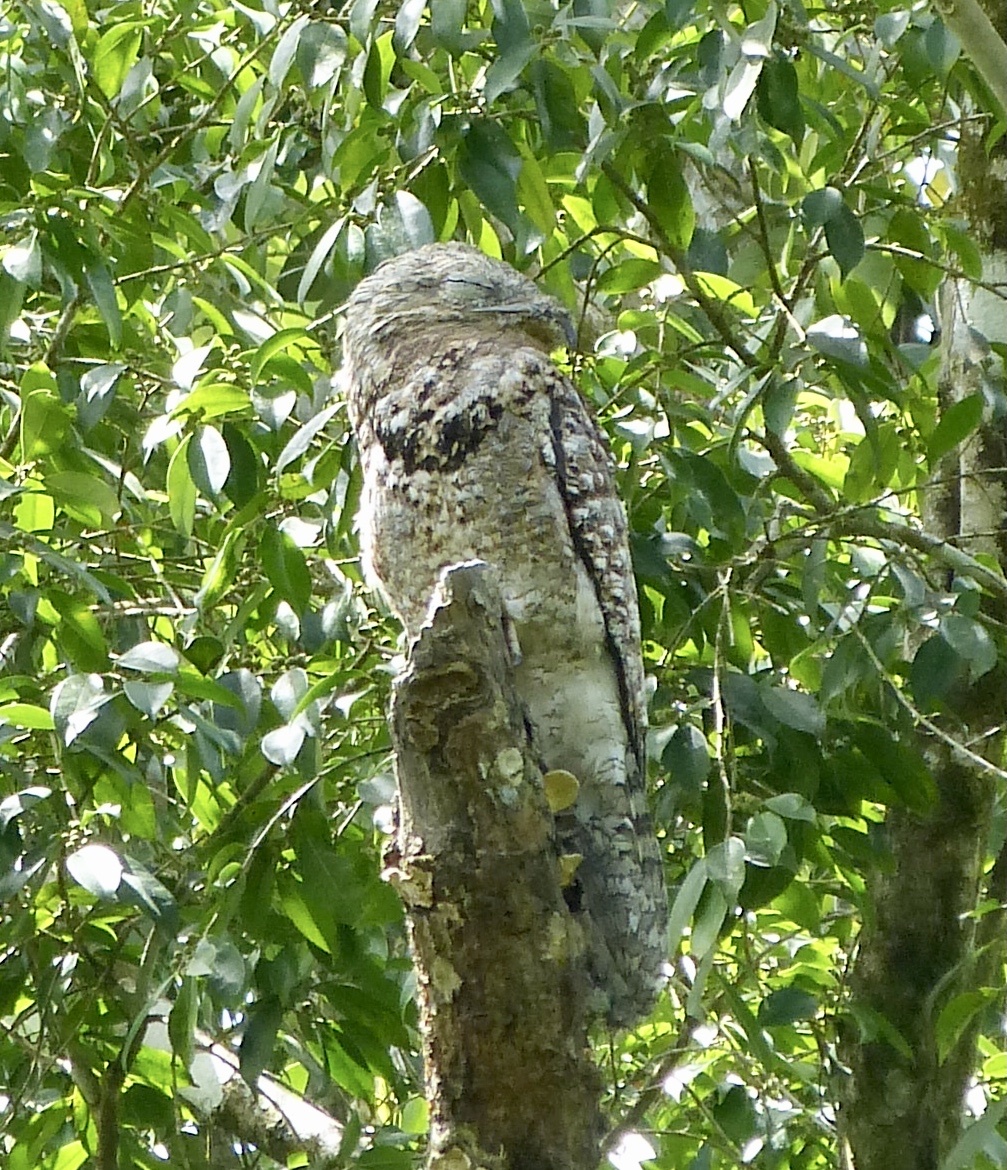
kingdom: Animalia
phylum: Chordata
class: Aves
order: Nyctibiiformes
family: Nyctibiidae
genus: Nyctibius
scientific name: Nyctibius grandis
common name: Great potoo
